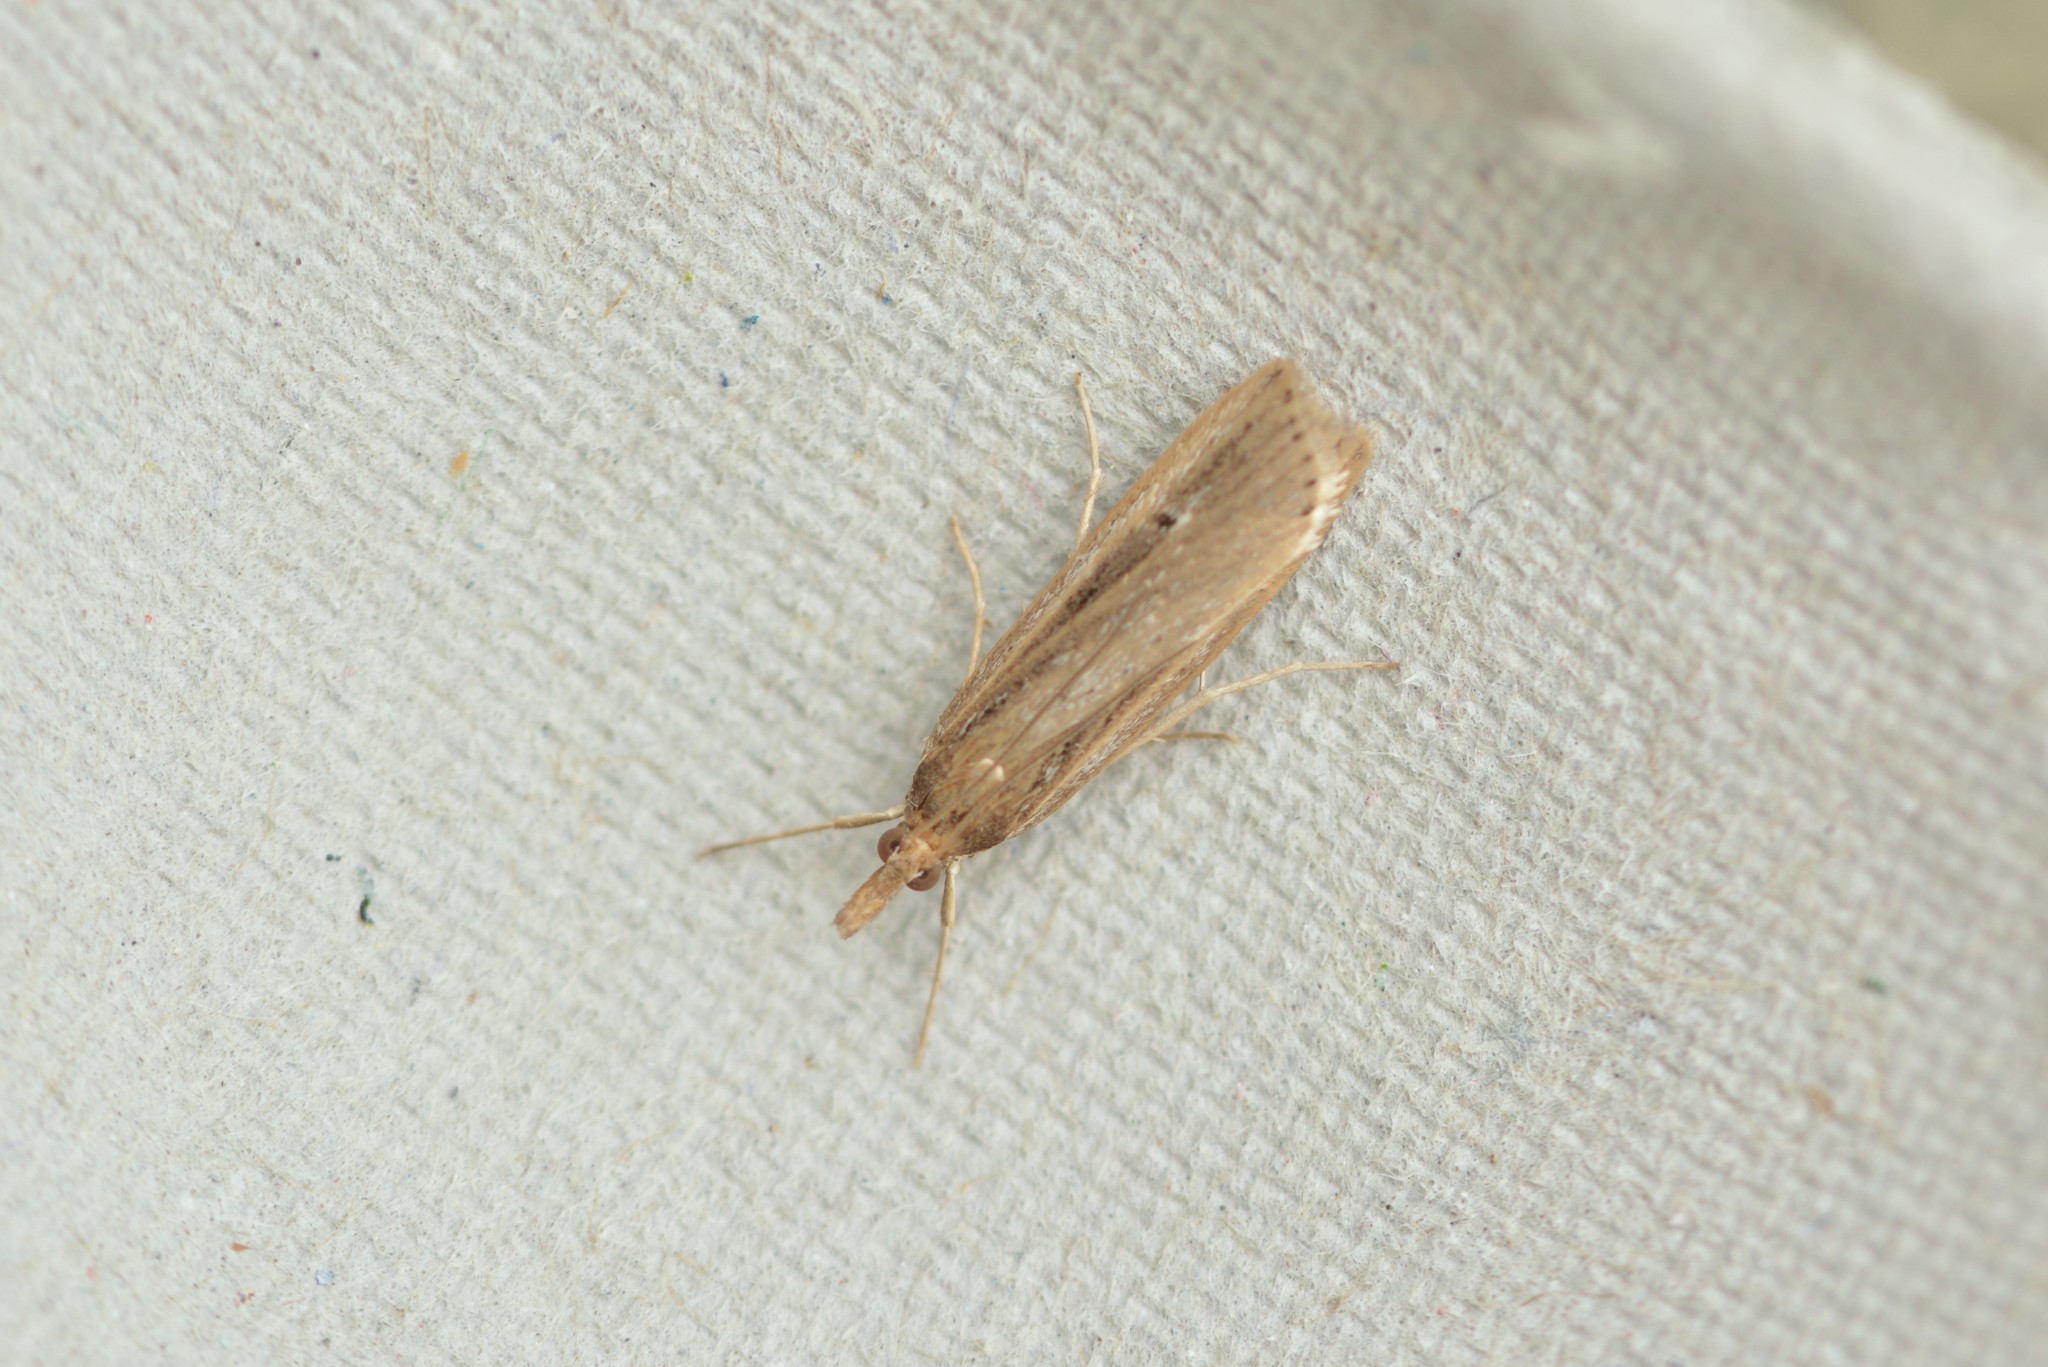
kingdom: Animalia
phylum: Arthropoda
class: Insecta
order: Lepidoptera
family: Crambidae
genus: Eudonia
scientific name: Eudonia sabulosella
